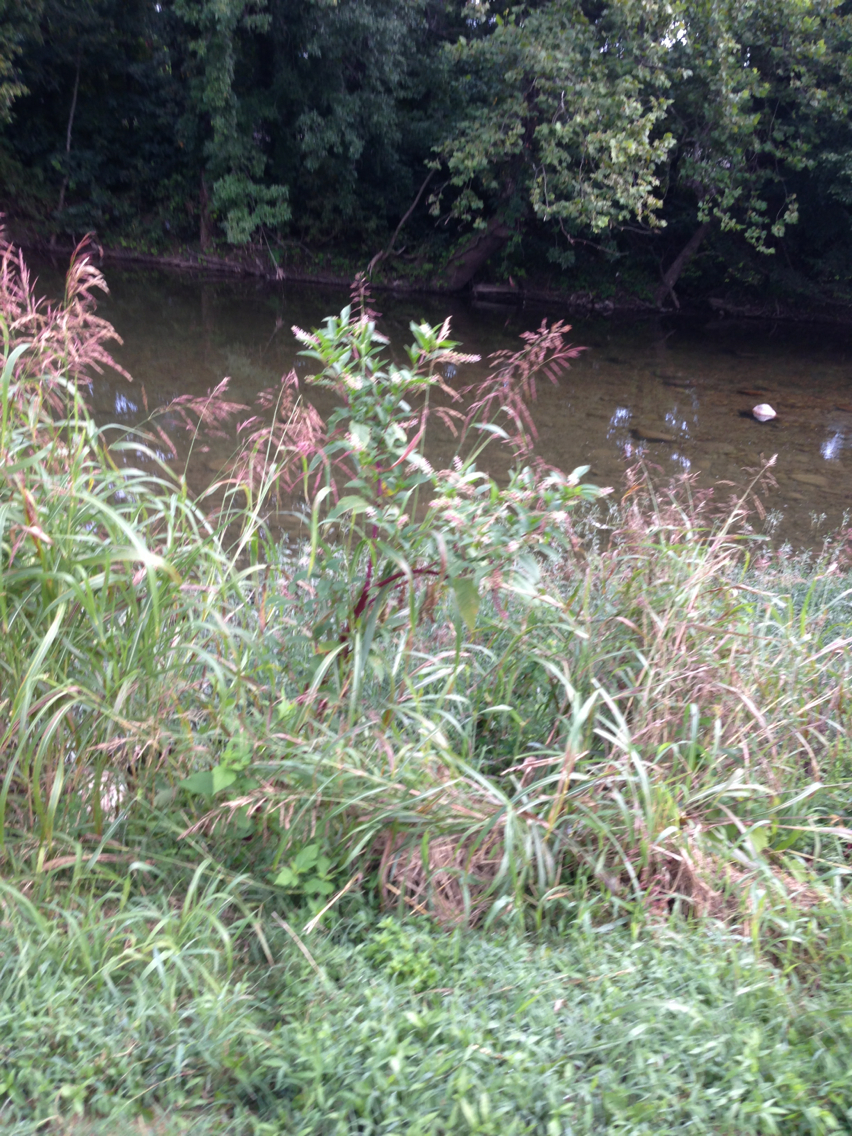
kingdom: Plantae
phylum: Tracheophyta
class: Magnoliopsida
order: Caryophyllales
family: Phytolaccaceae
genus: Phytolacca
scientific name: Phytolacca americana
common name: American pokeweed
